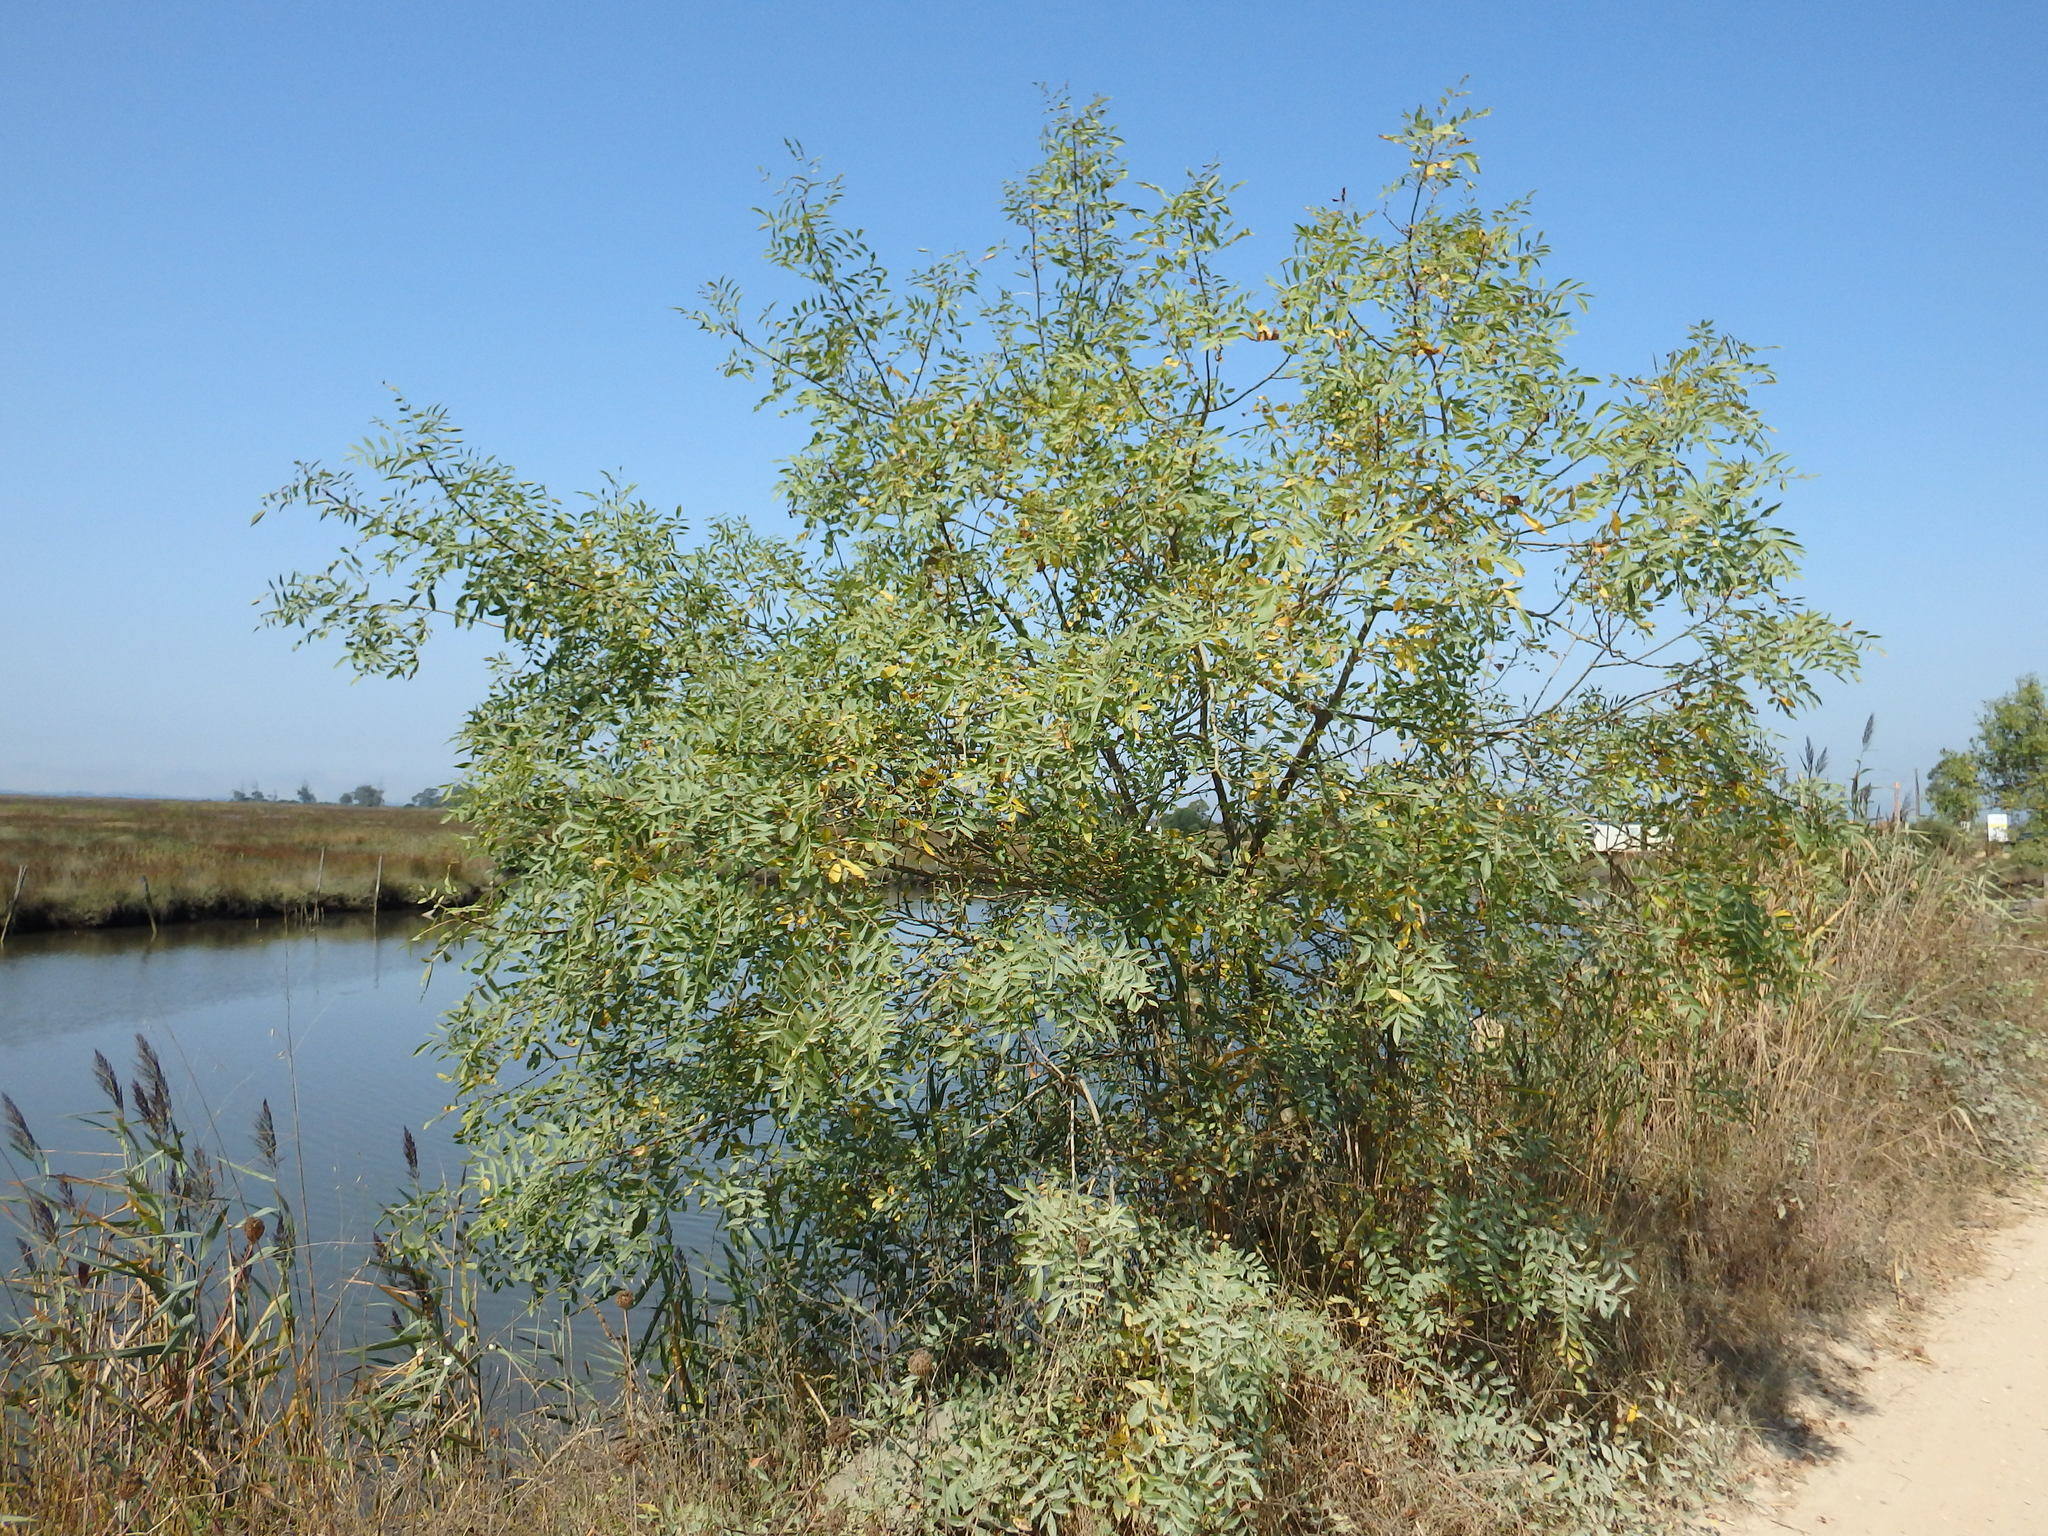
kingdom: Plantae
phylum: Tracheophyta
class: Magnoliopsida
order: Lamiales
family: Oleaceae
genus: Fraxinus
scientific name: Fraxinus angustifolia
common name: Narrow-leafed ash
